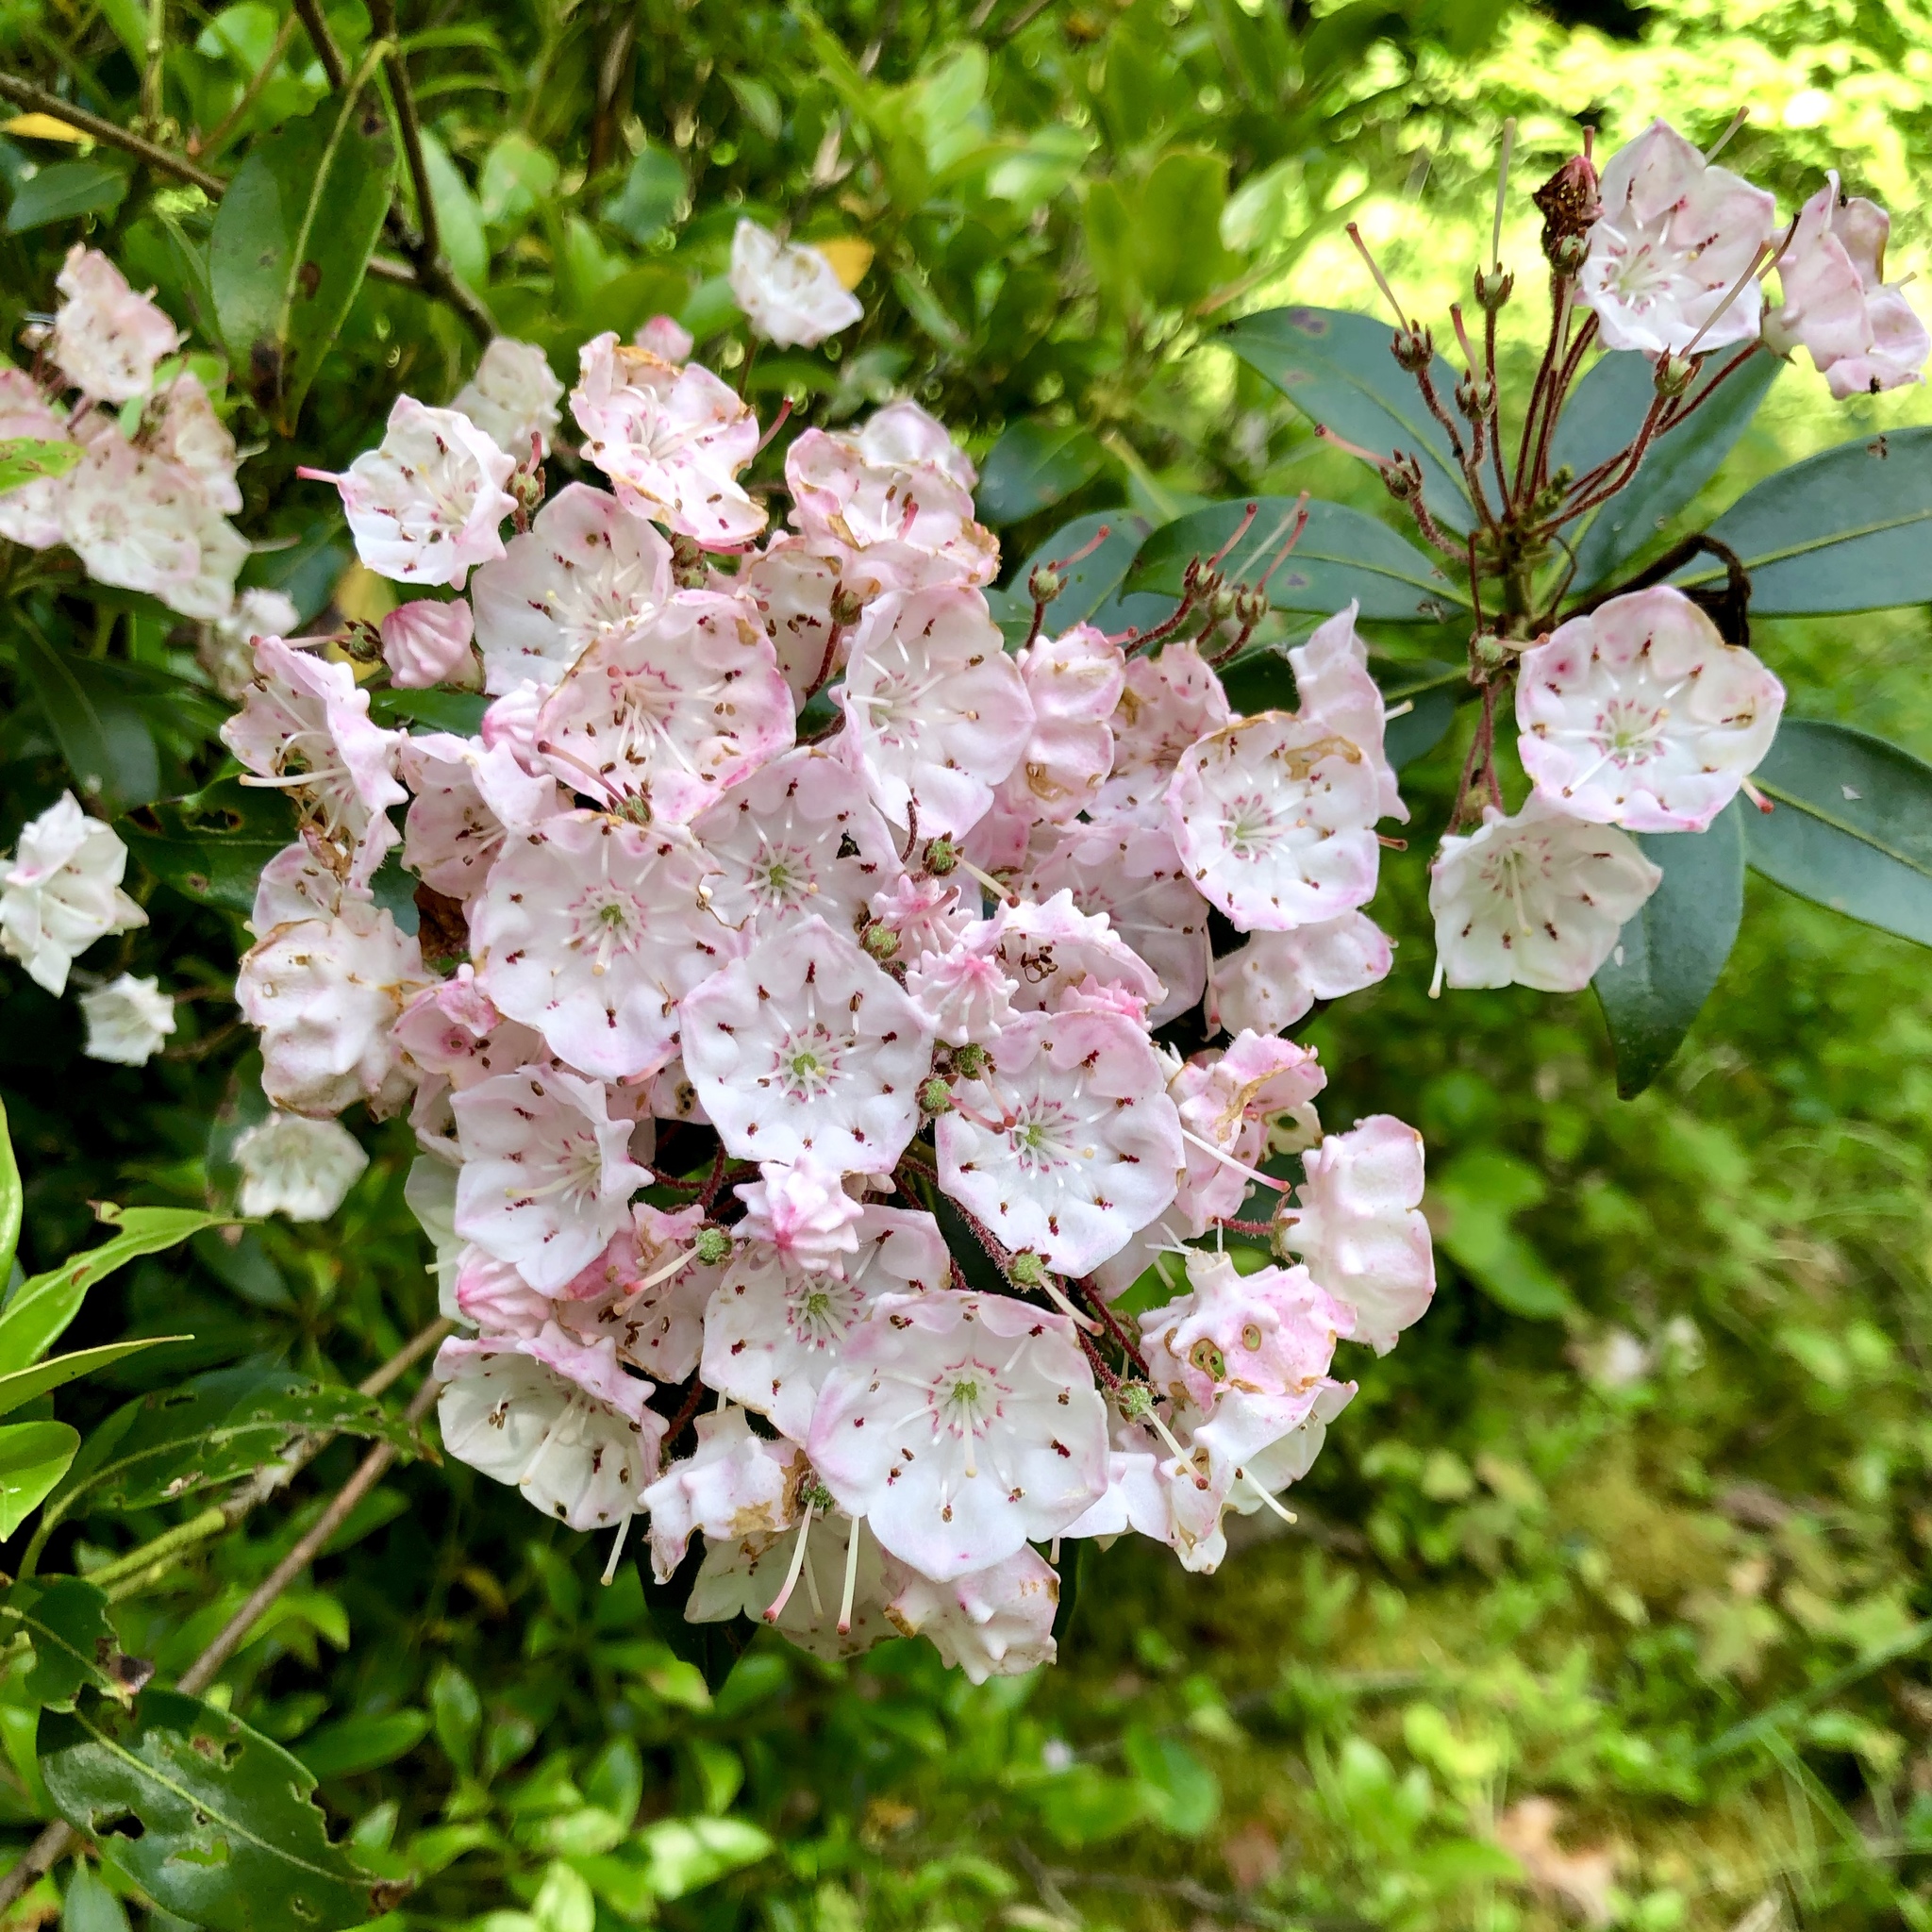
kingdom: Plantae
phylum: Tracheophyta
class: Magnoliopsida
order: Ericales
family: Ericaceae
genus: Kalmia
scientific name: Kalmia latifolia
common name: Mountain-laurel
